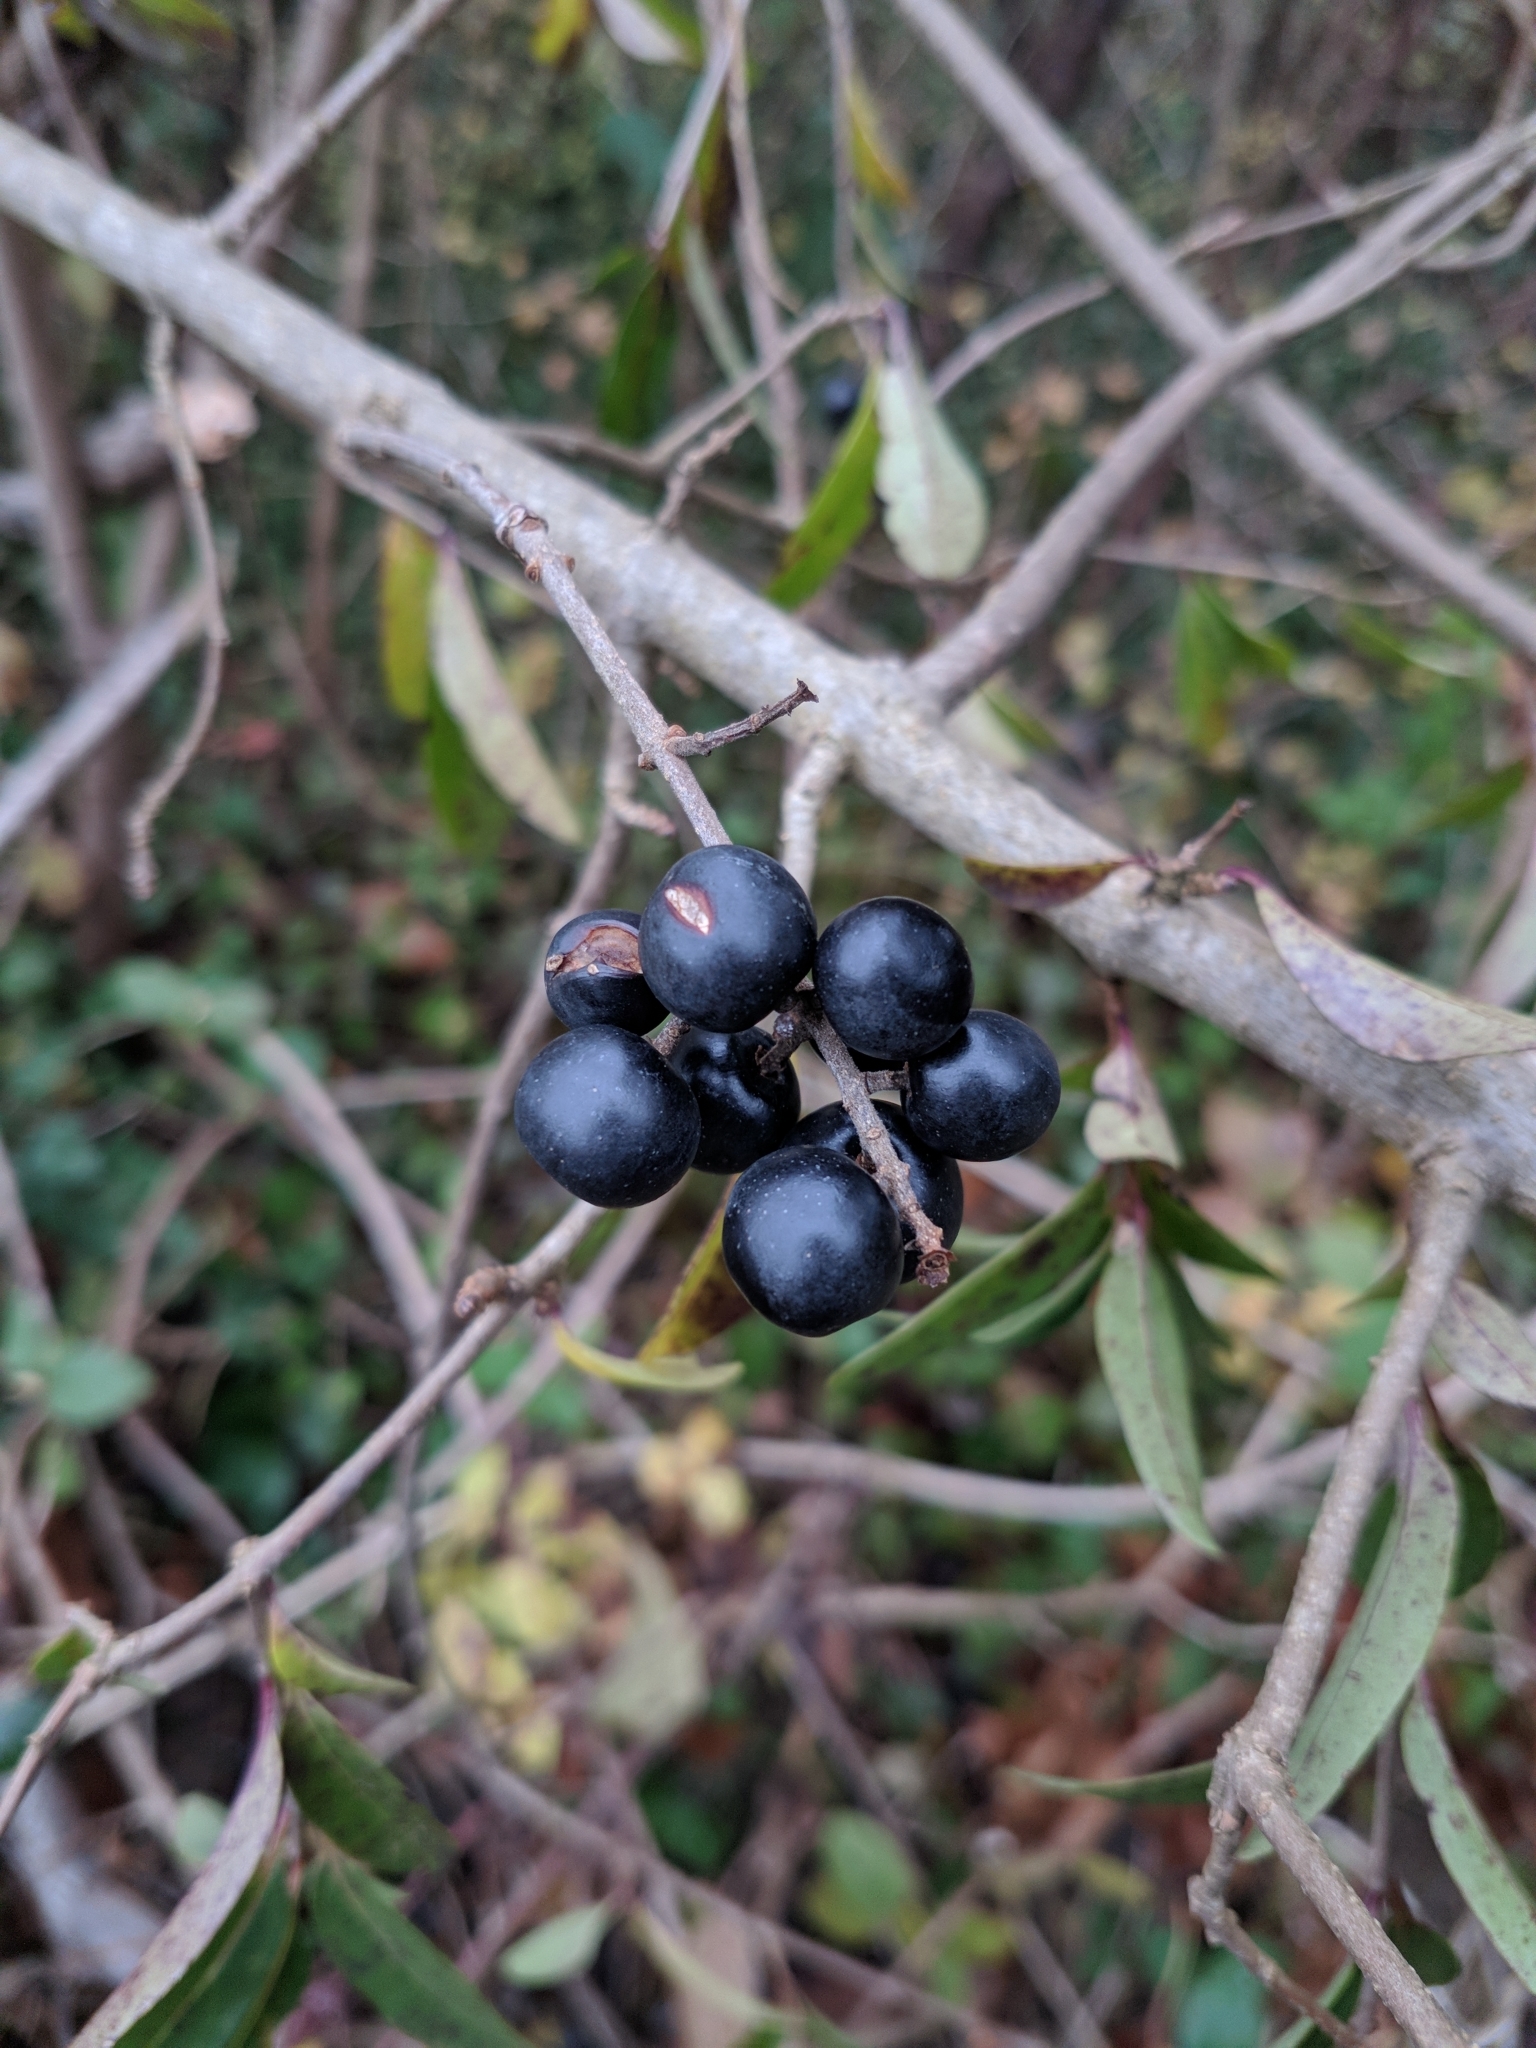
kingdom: Plantae
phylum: Tracheophyta
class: Magnoliopsida
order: Lamiales
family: Oleaceae
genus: Ligustrum
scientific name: Ligustrum vulgare
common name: Wild privet
